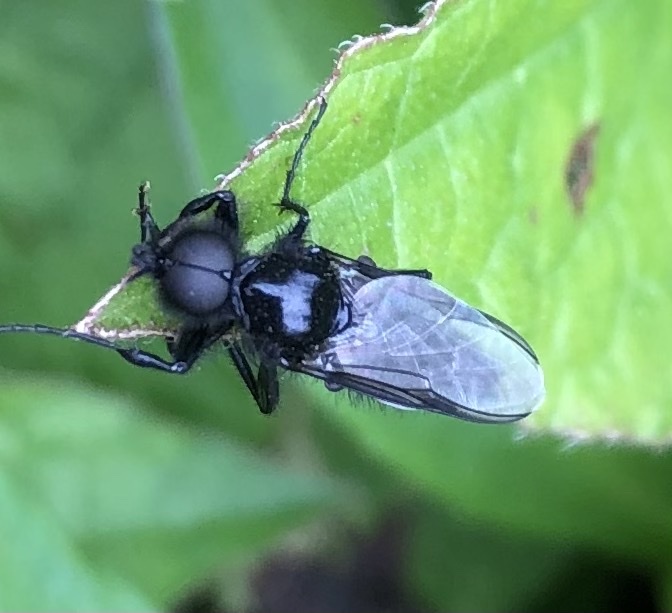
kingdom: Animalia
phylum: Arthropoda
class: Insecta
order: Diptera
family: Bibionidae
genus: Bibio
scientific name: Bibio marci
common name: St marks fly
